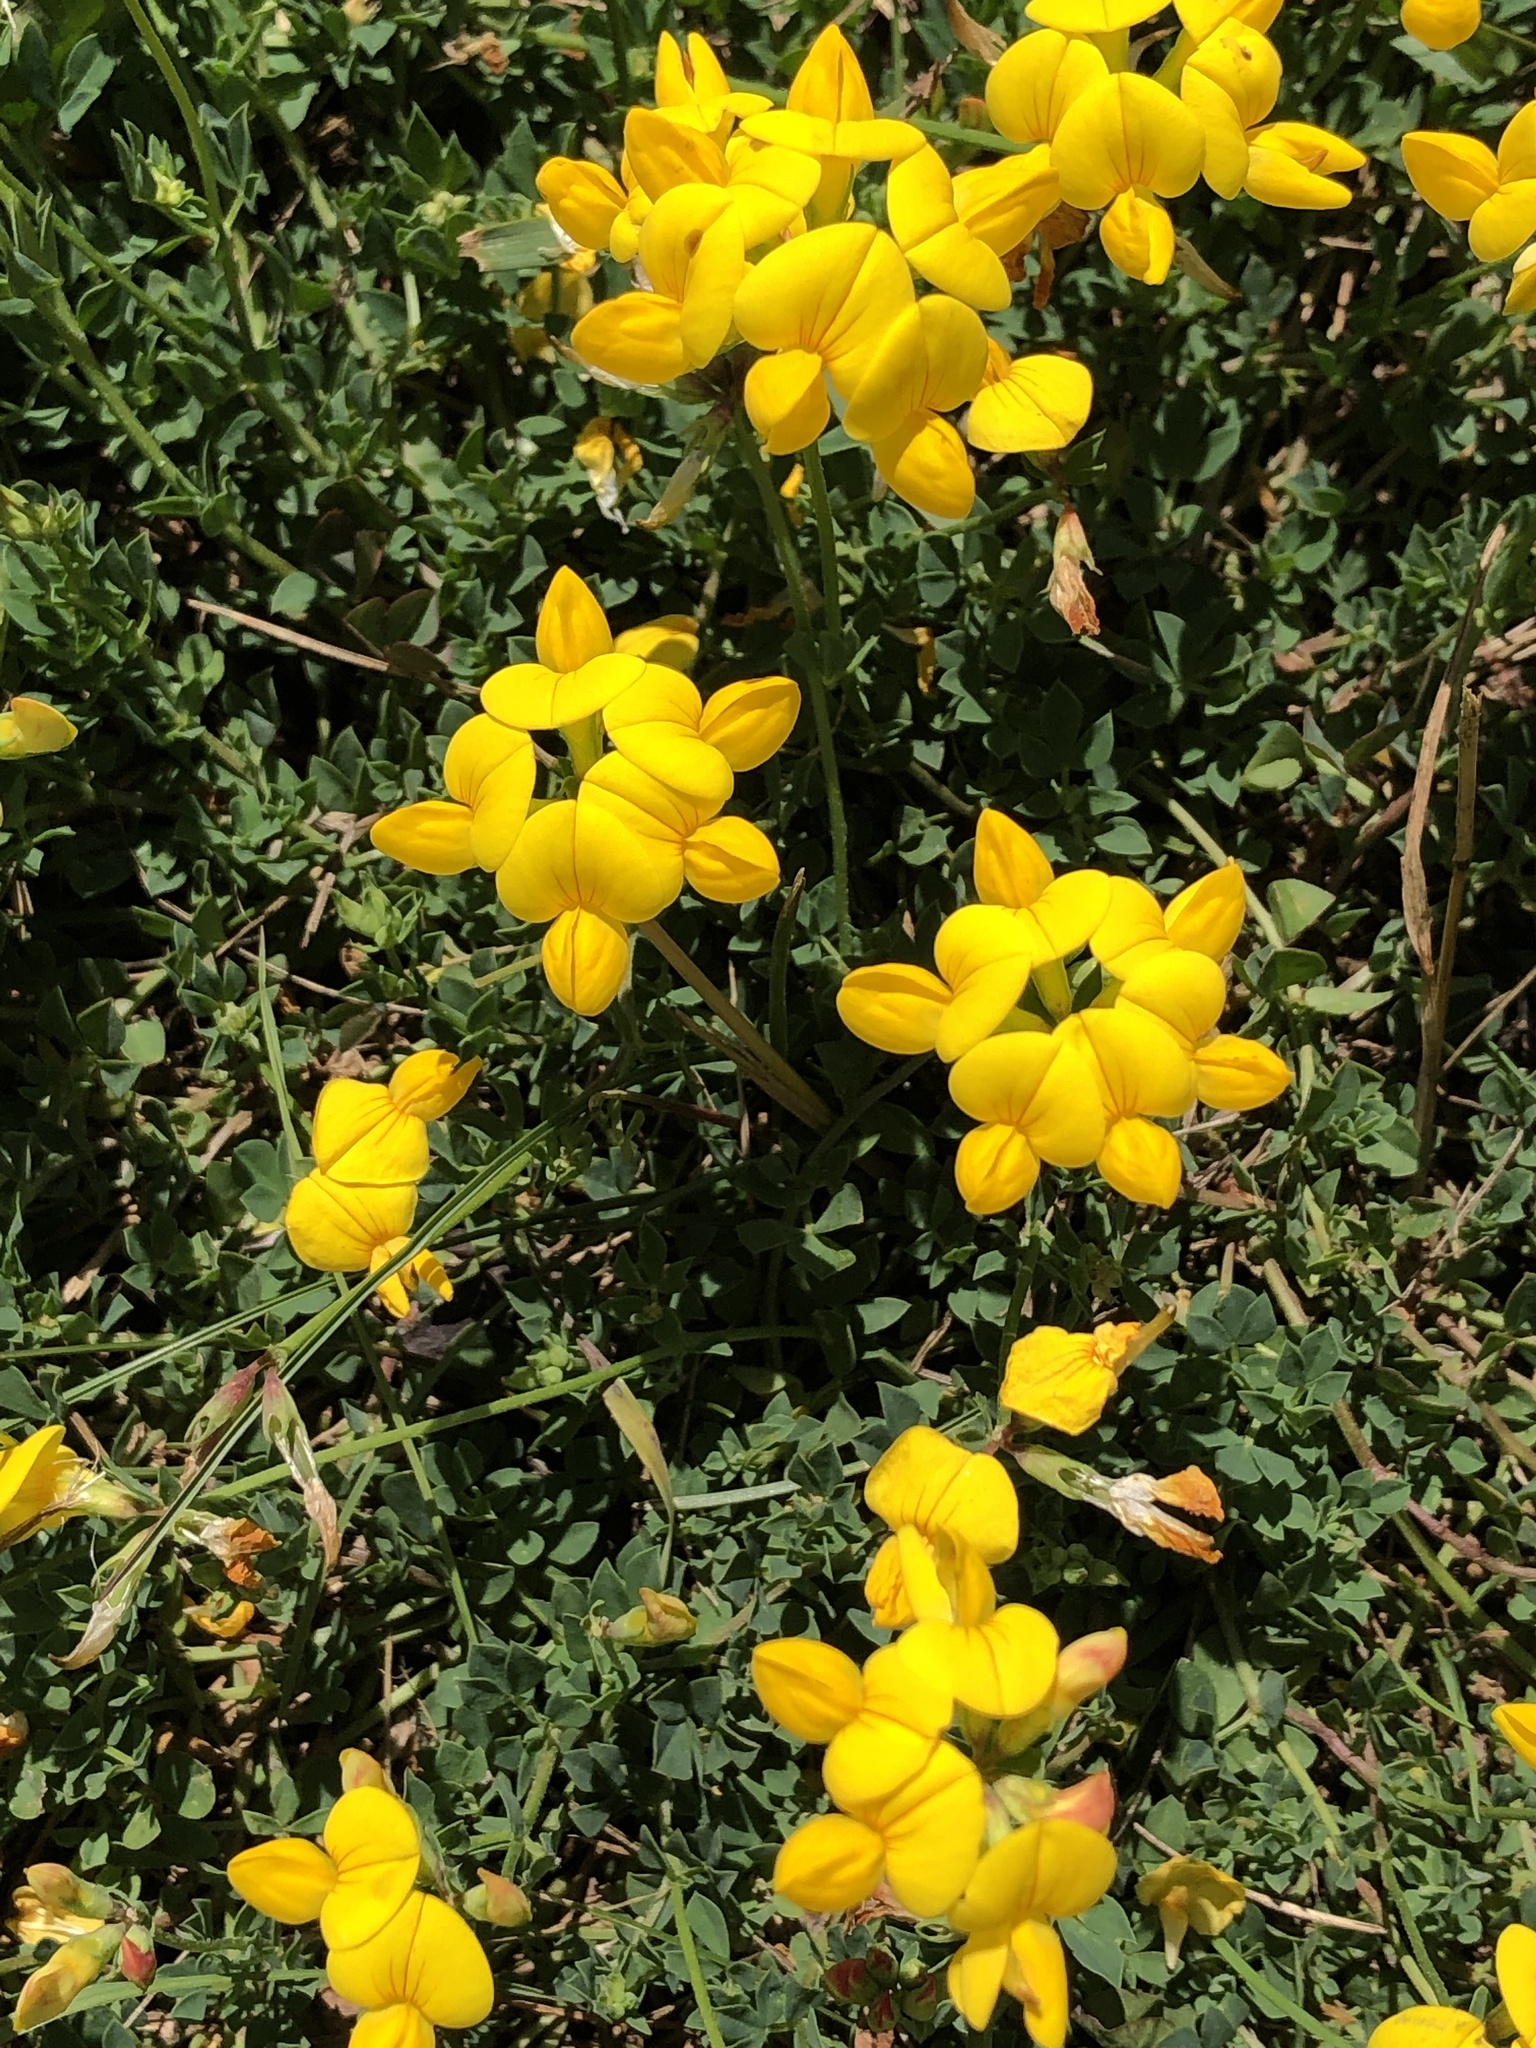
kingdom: Plantae
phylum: Tracheophyta
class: Magnoliopsida
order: Fabales
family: Fabaceae
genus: Lotus
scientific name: Lotus corniculatus
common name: Common bird's-foot-trefoil
